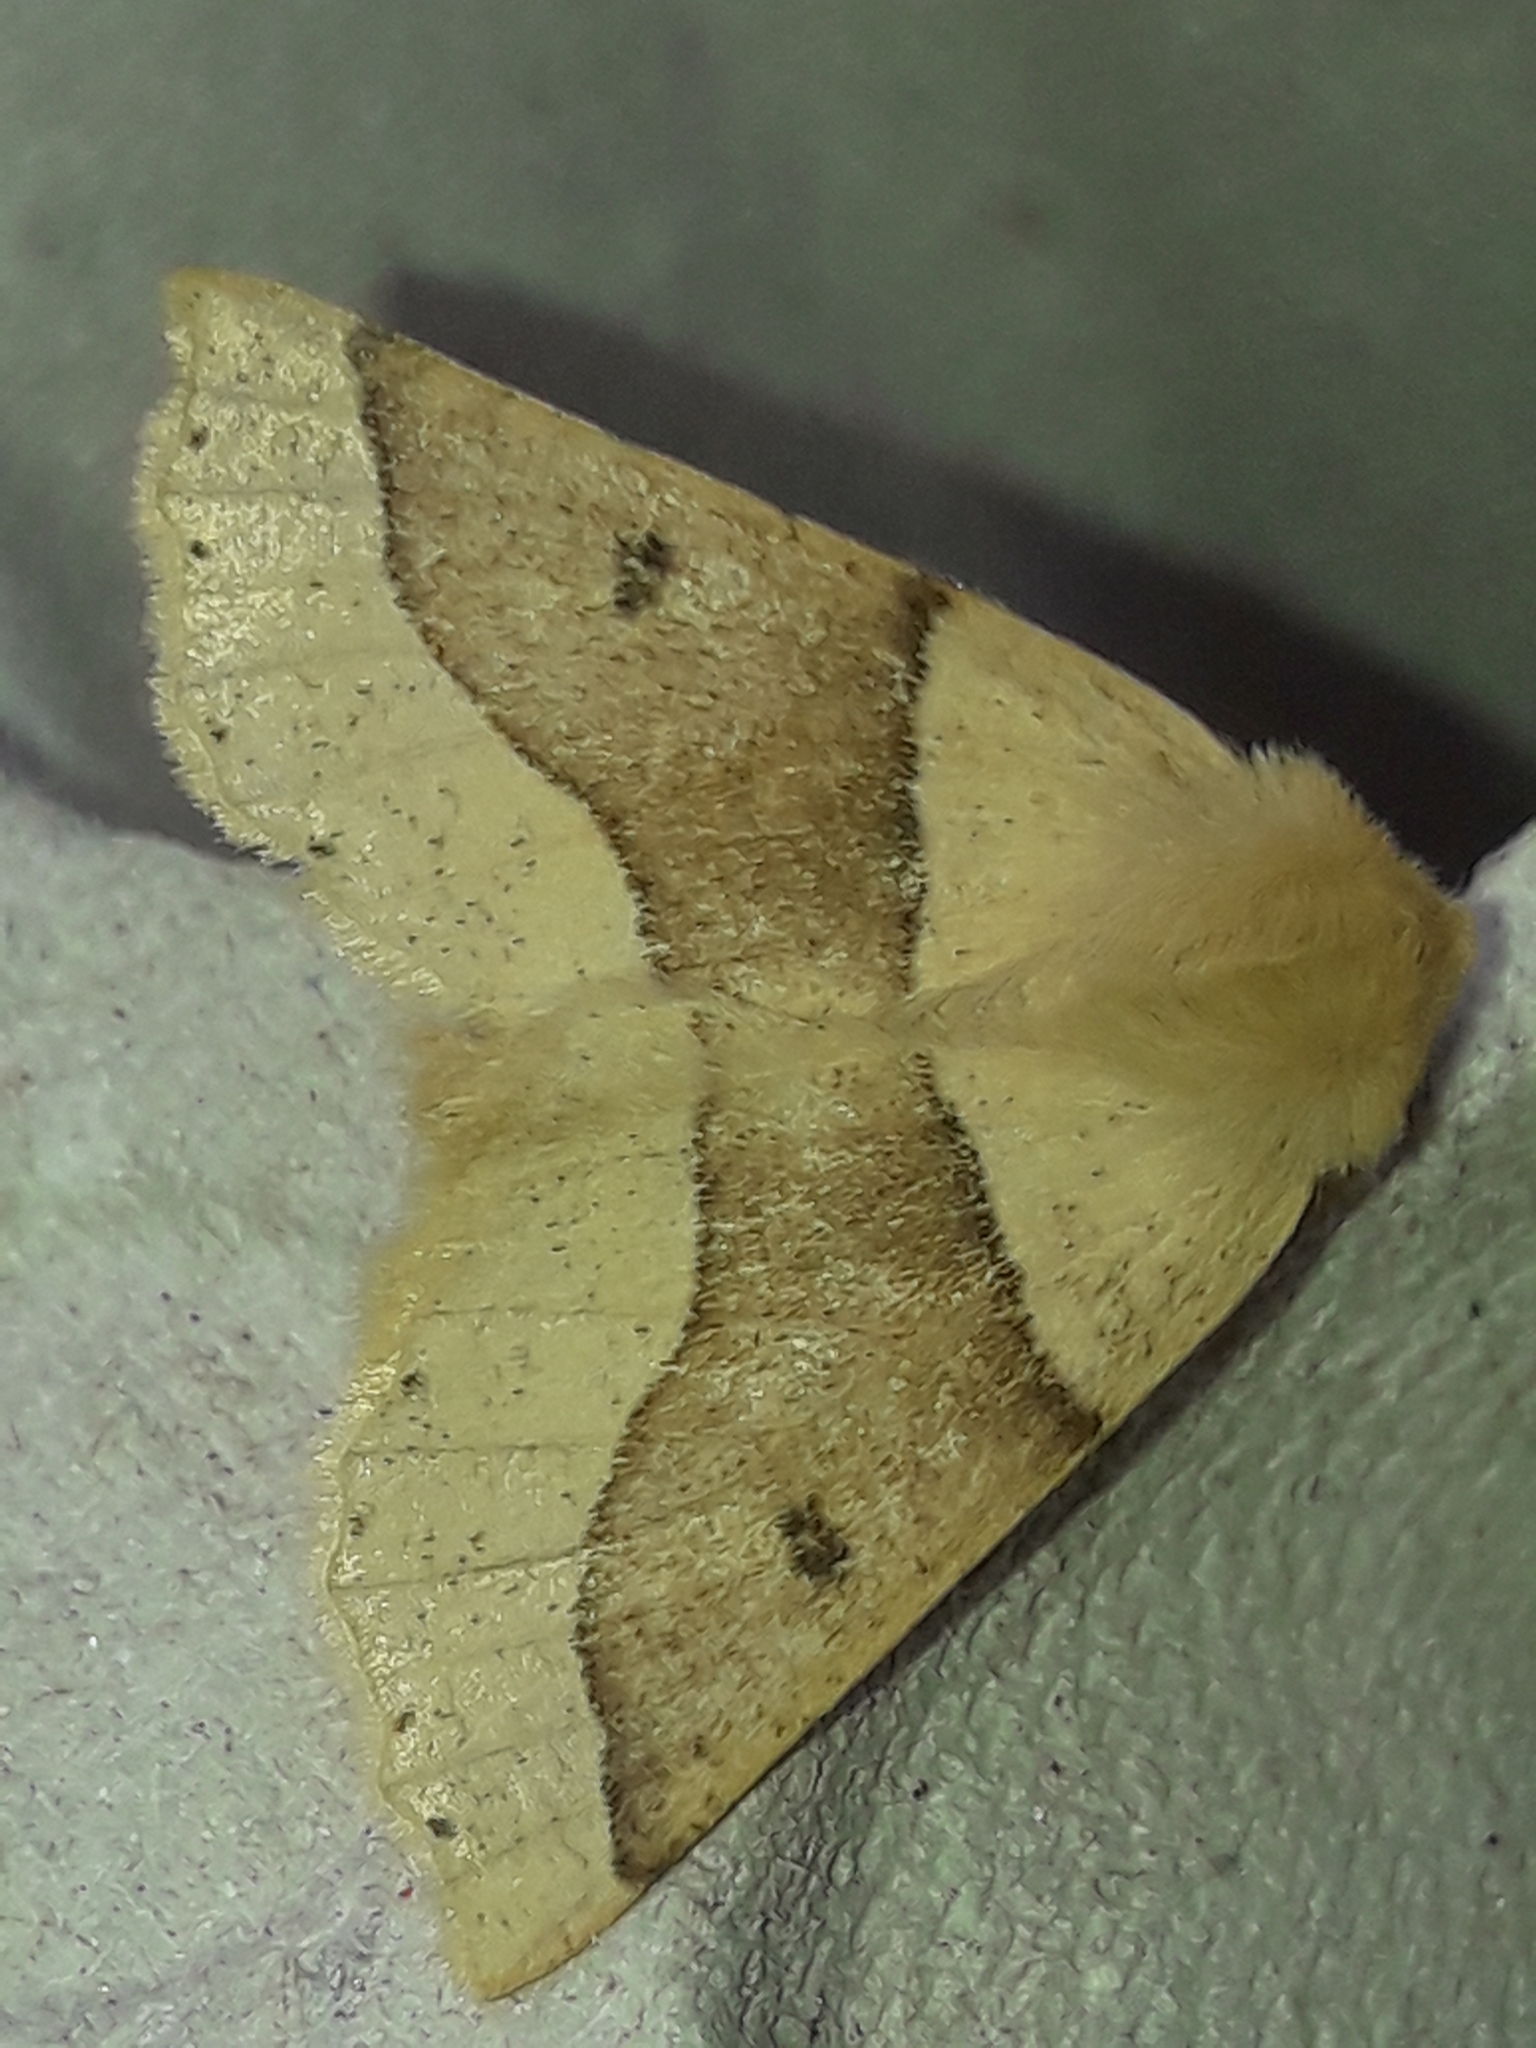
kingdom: Animalia
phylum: Arthropoda
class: Insecta
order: Lepidoptera
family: Geometridae
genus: Crocallis
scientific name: Crocallis elinguaria
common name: Scalloped oak
